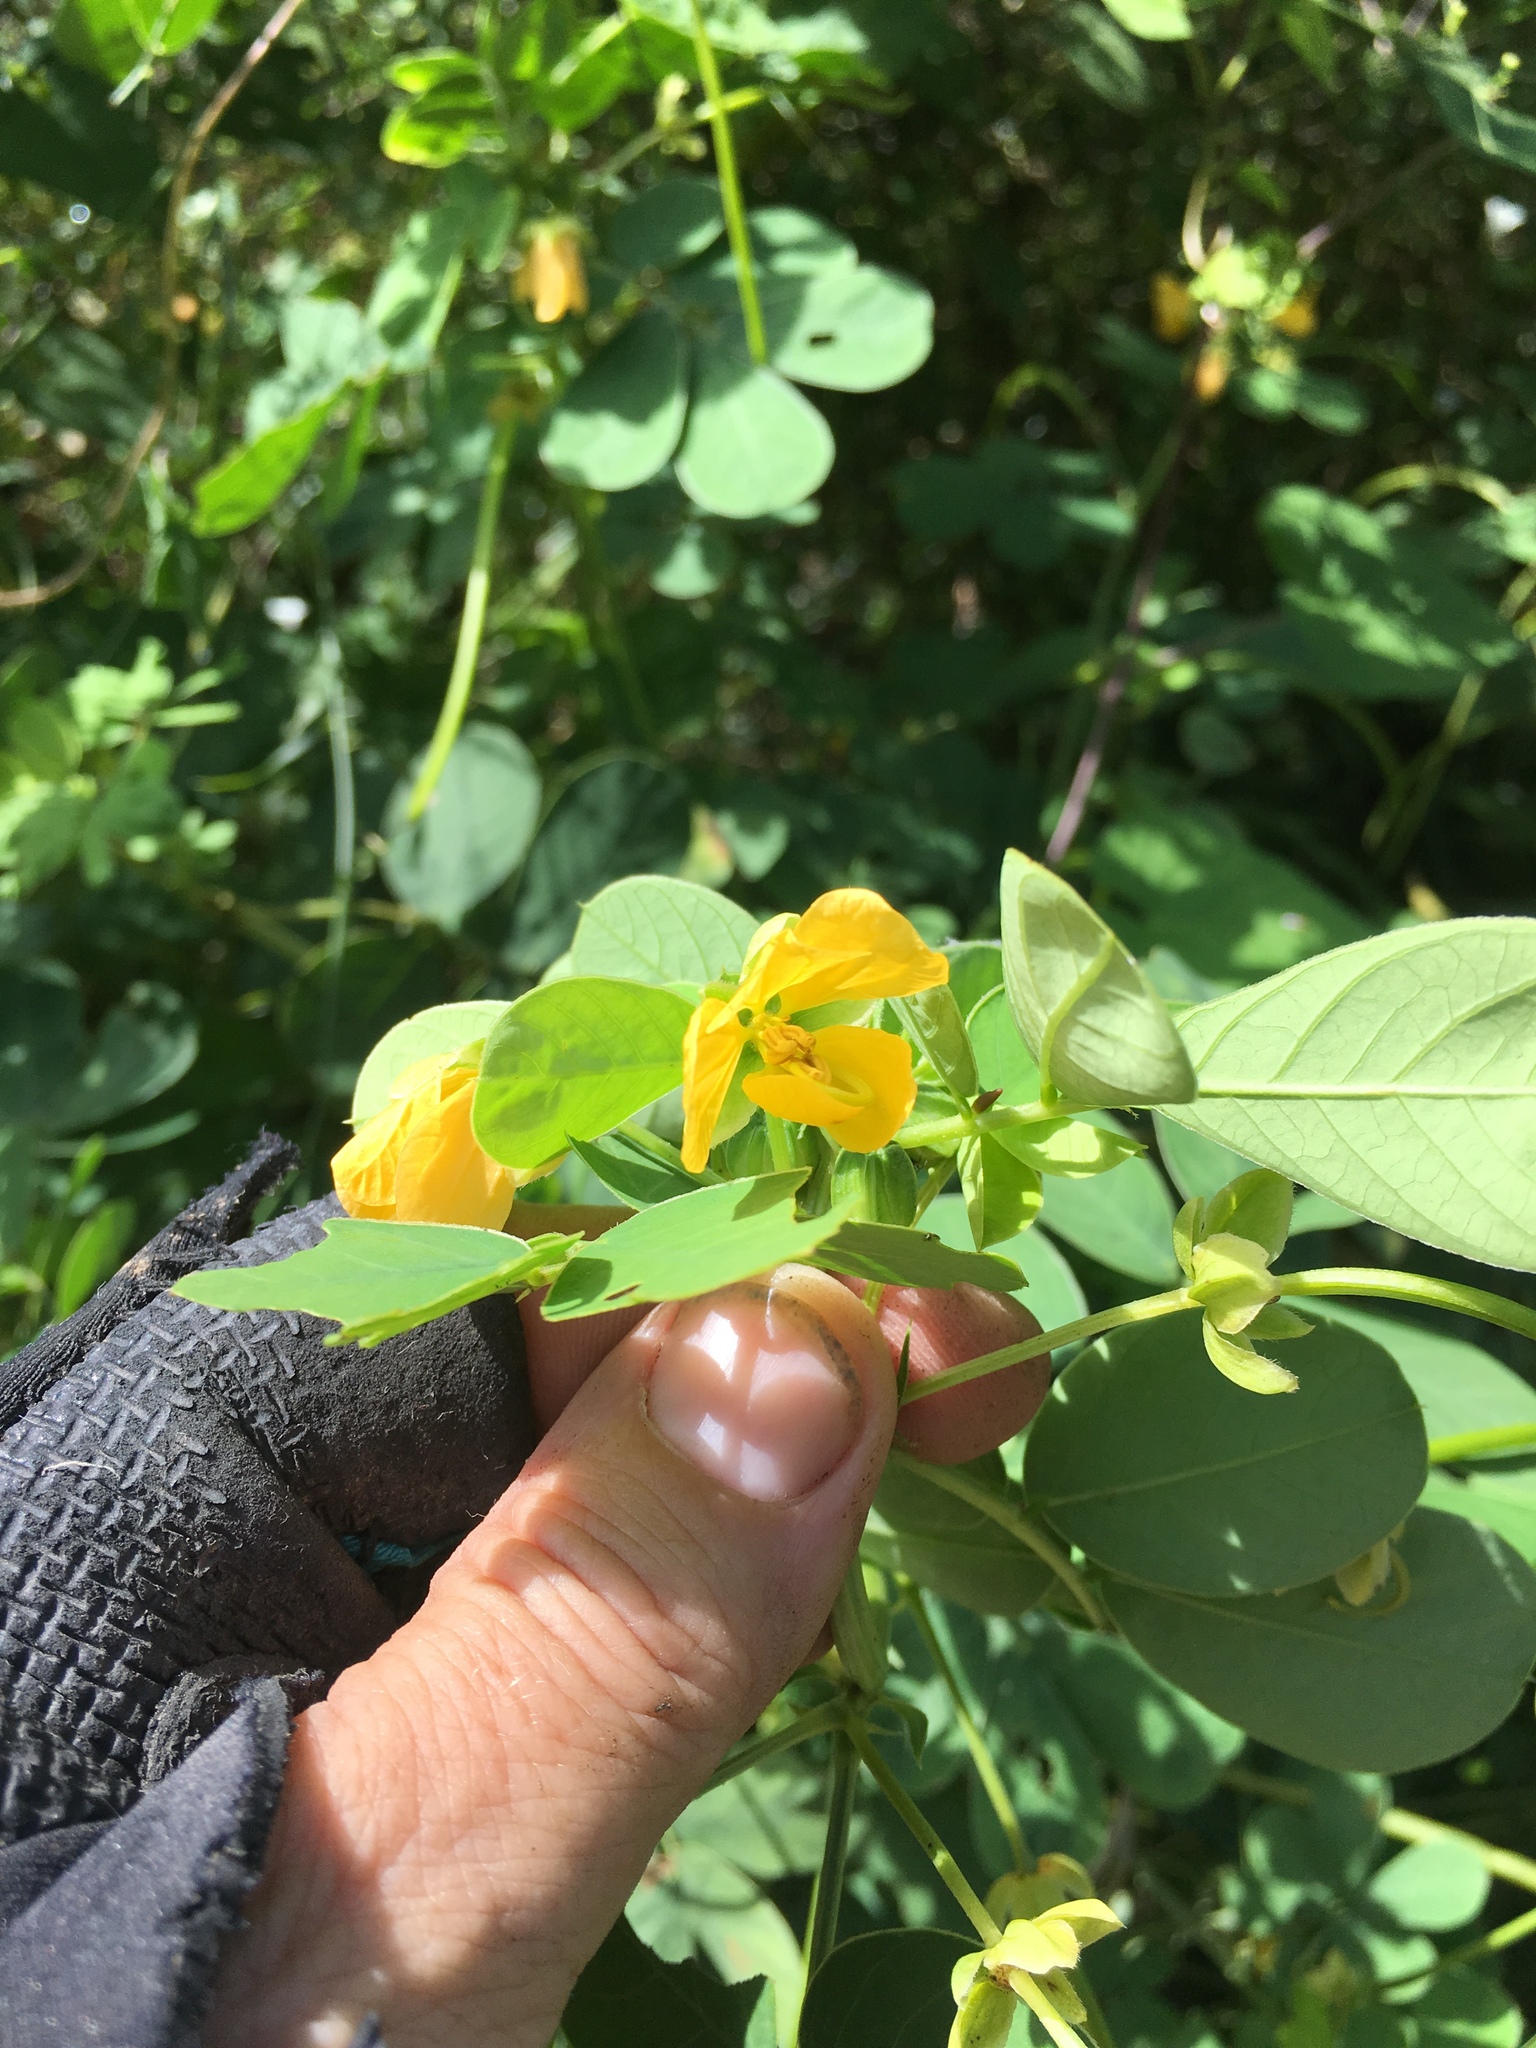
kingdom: Plantae
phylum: Tracheophyta
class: Magnoliopsida
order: Fabales
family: Fabaceae
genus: Senna
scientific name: Senna obtusifolia
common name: Java-bean
